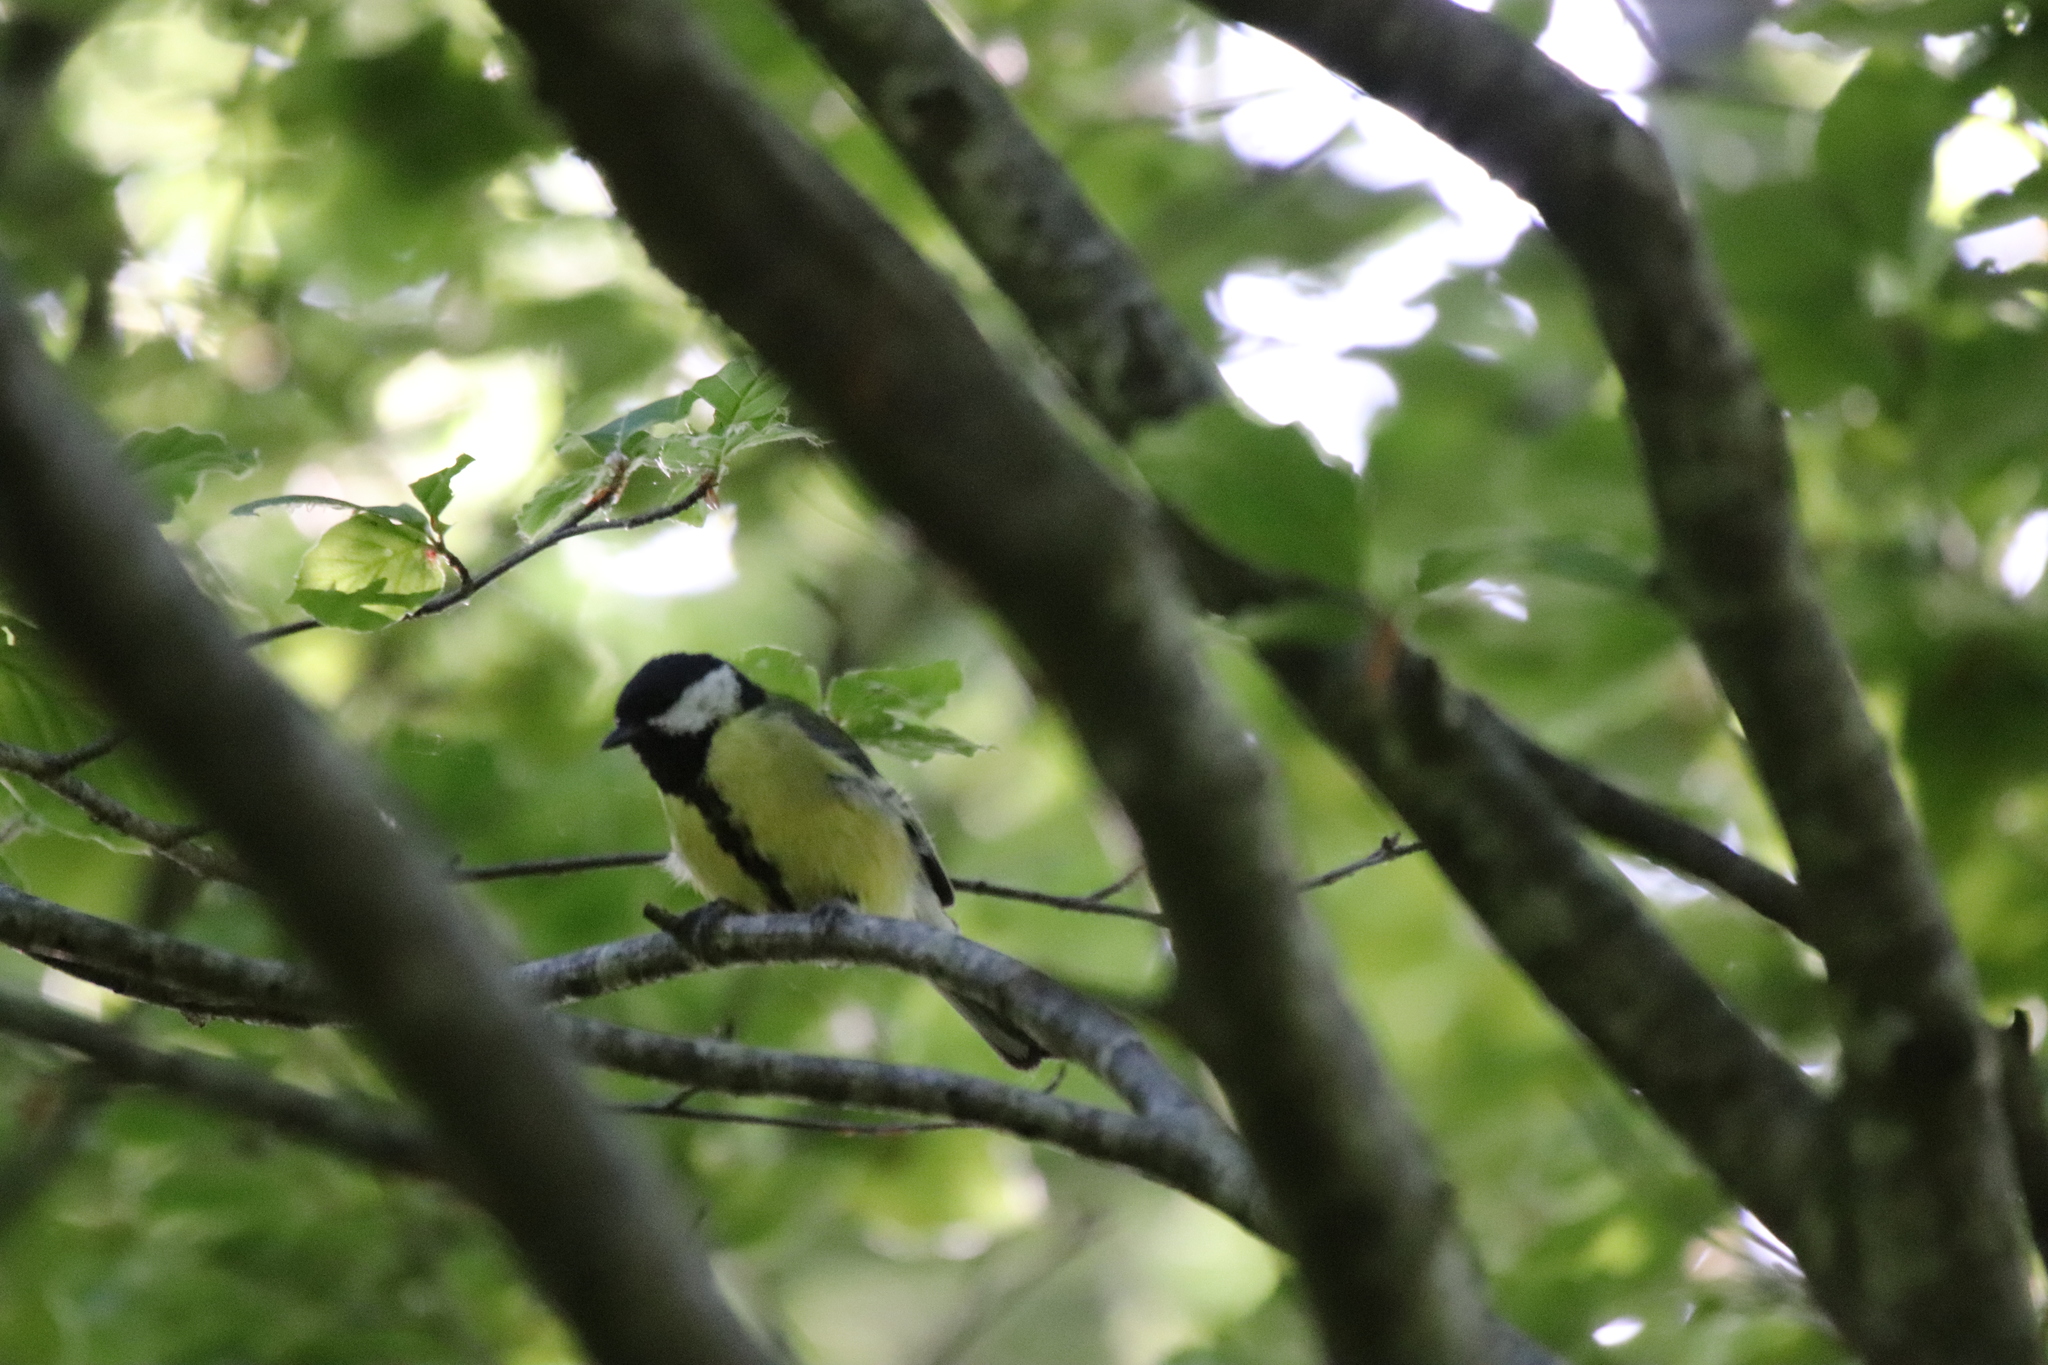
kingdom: Animalia
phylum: Chordata
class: Aves
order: Passeriformes
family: Paridae
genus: Parus
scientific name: Parus major
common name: Great tit
